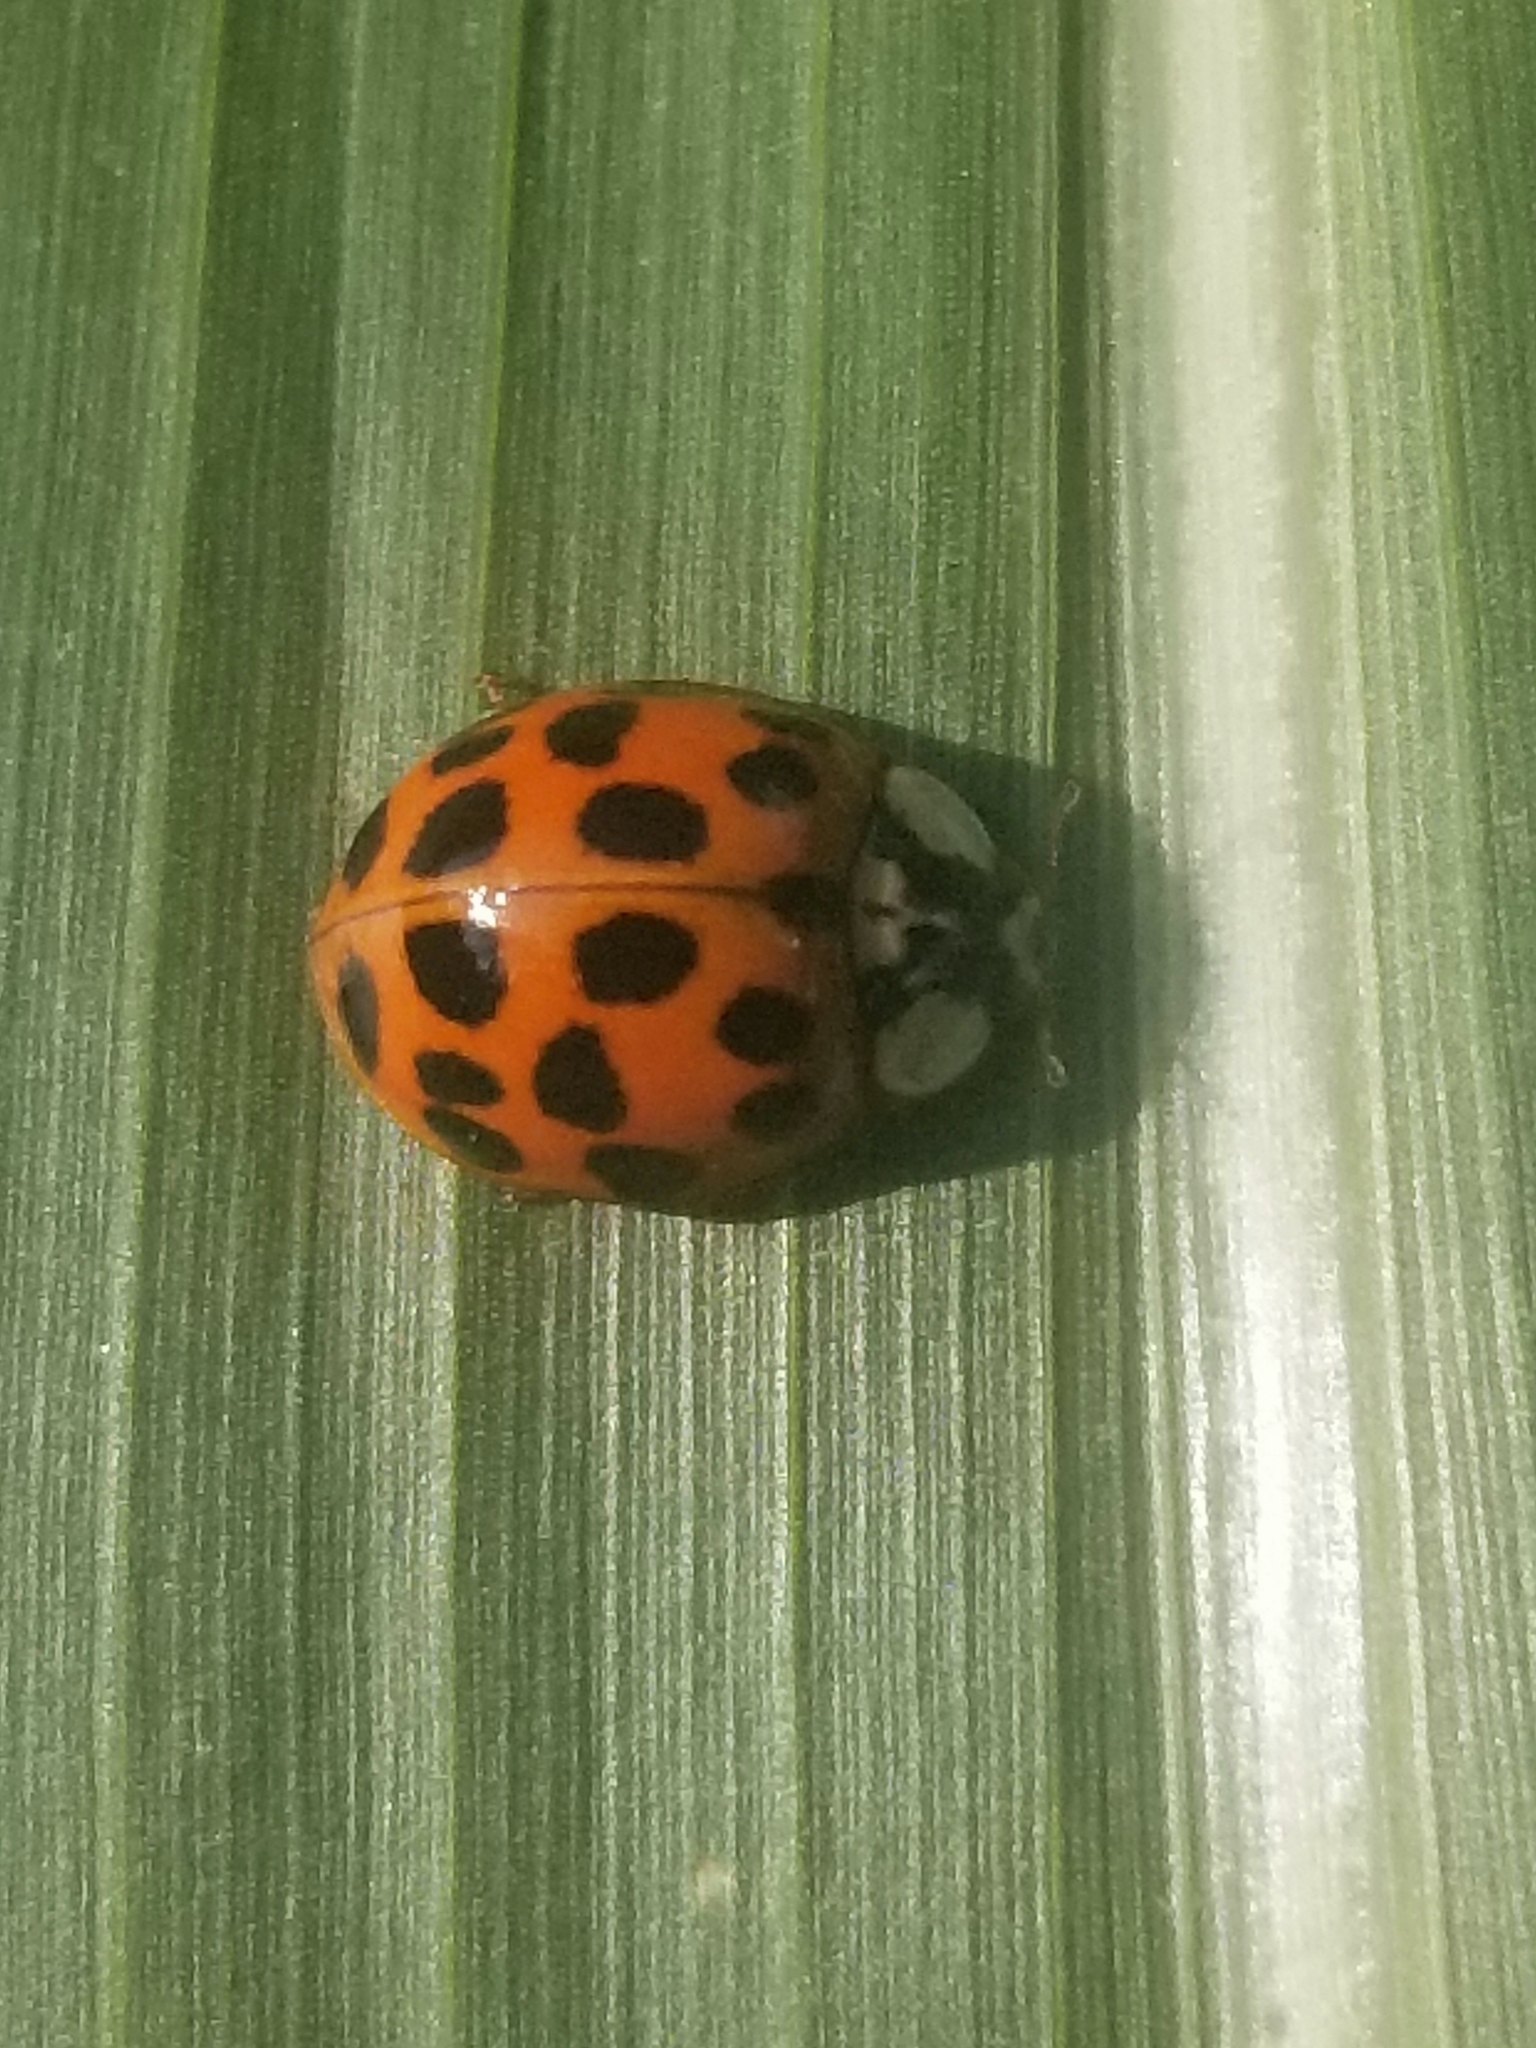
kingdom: Animalia
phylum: Arthropoda
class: Insecta
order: Coleoptera
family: Coccinellidae
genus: Harmonia
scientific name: Harmonia axyridis
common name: Harlequin ladybird
